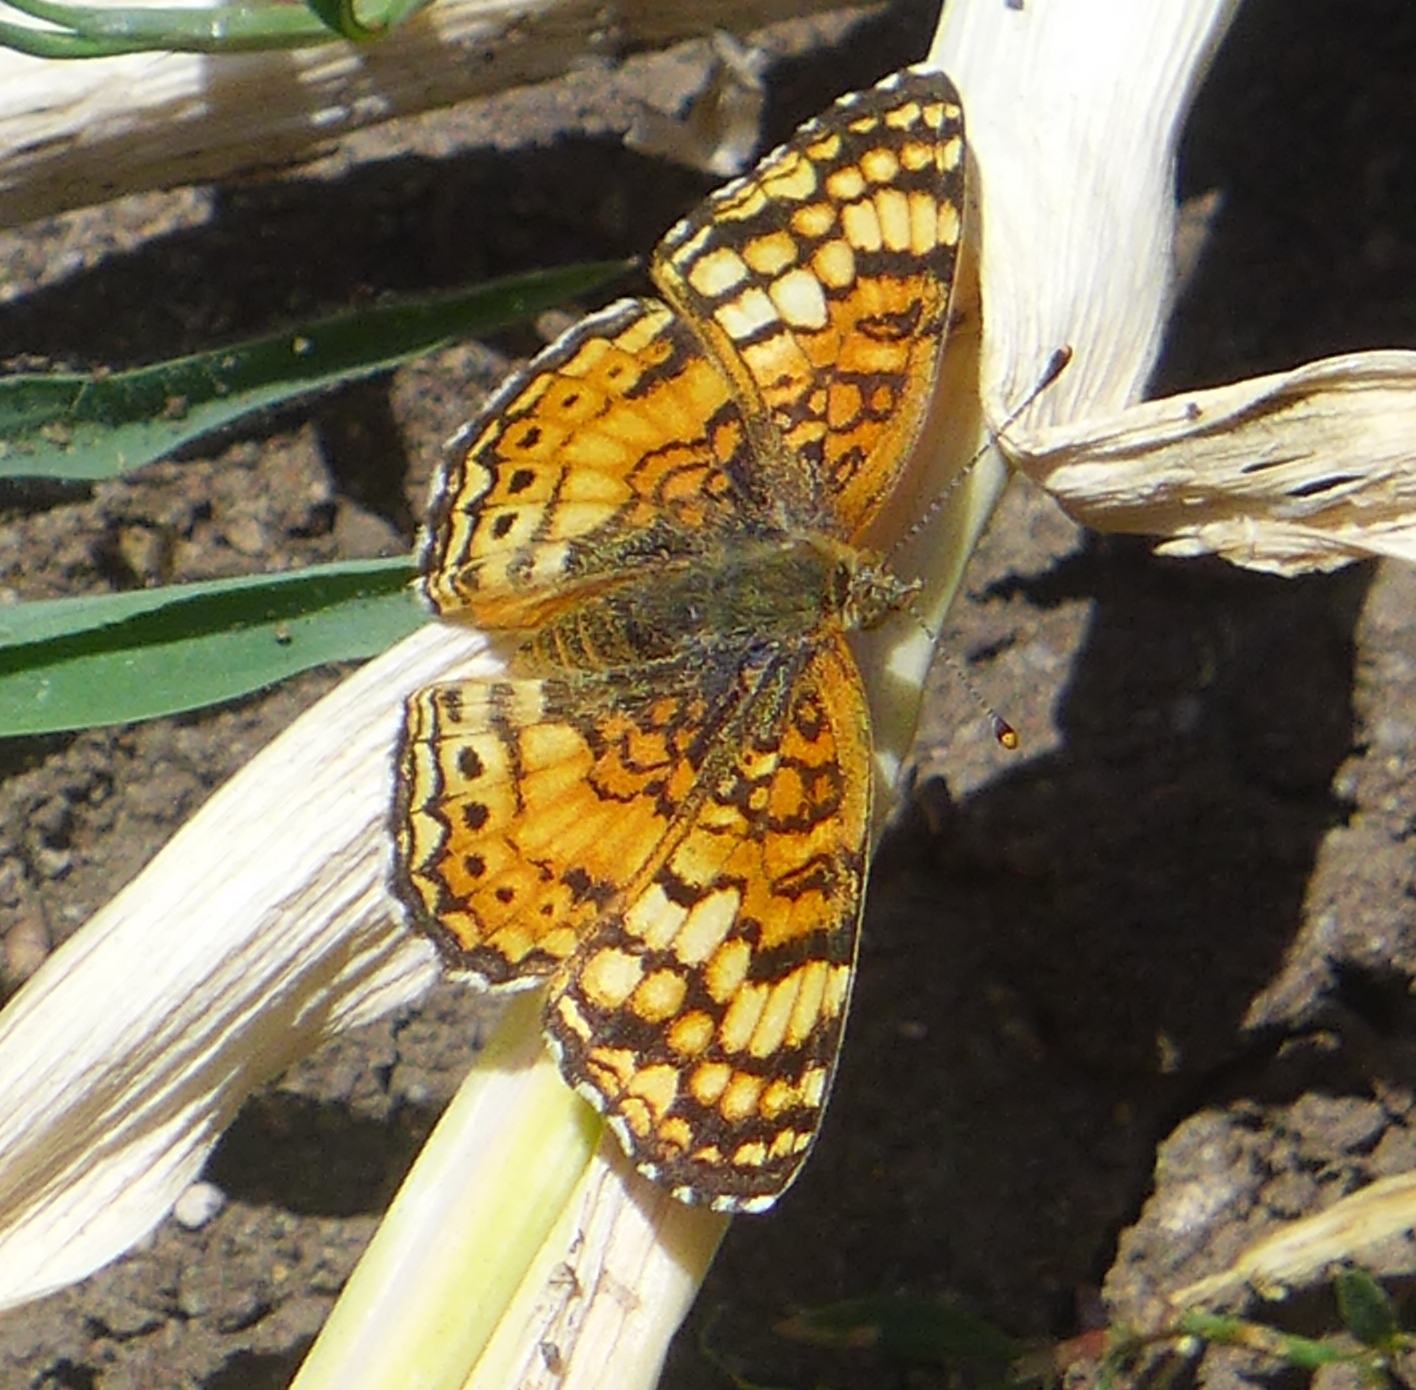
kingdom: Animalia
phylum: Arthropoda
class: Insecta
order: Lepidoptera
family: Nymphalidae
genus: Eresia
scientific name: Eresia aveyrona
